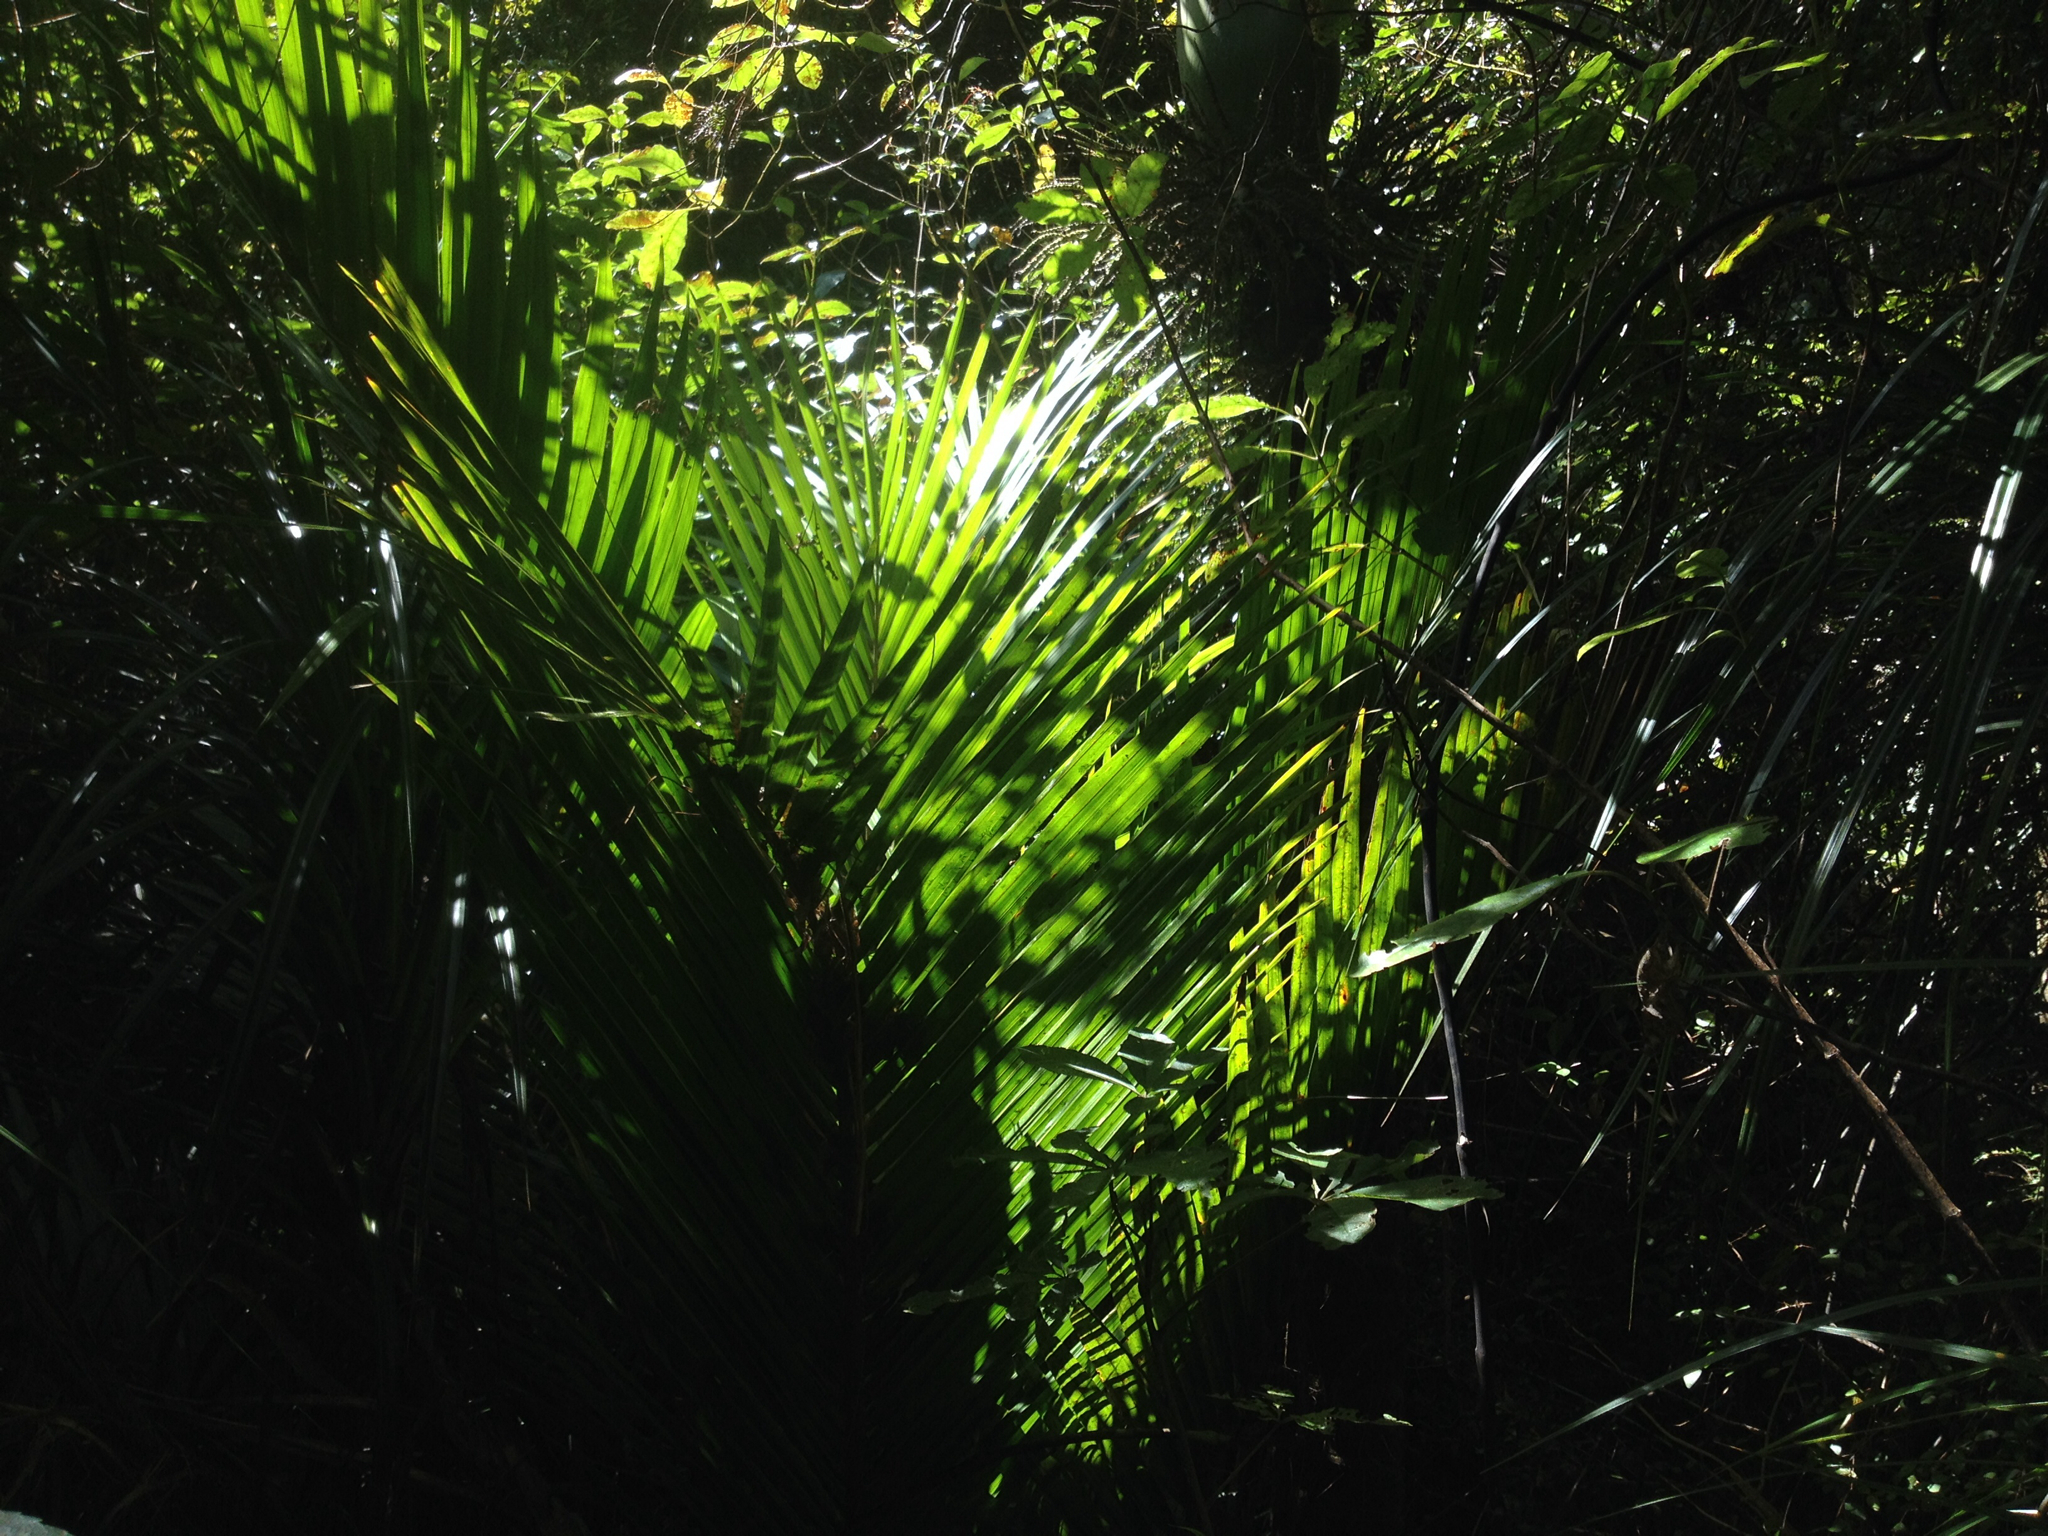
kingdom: Plantae
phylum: Tracheophyta
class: Liliopsida
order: Arecales
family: Arecaceae
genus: Rhopalostylis
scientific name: Rhopalostylis sapida
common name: Feather-duster palm
